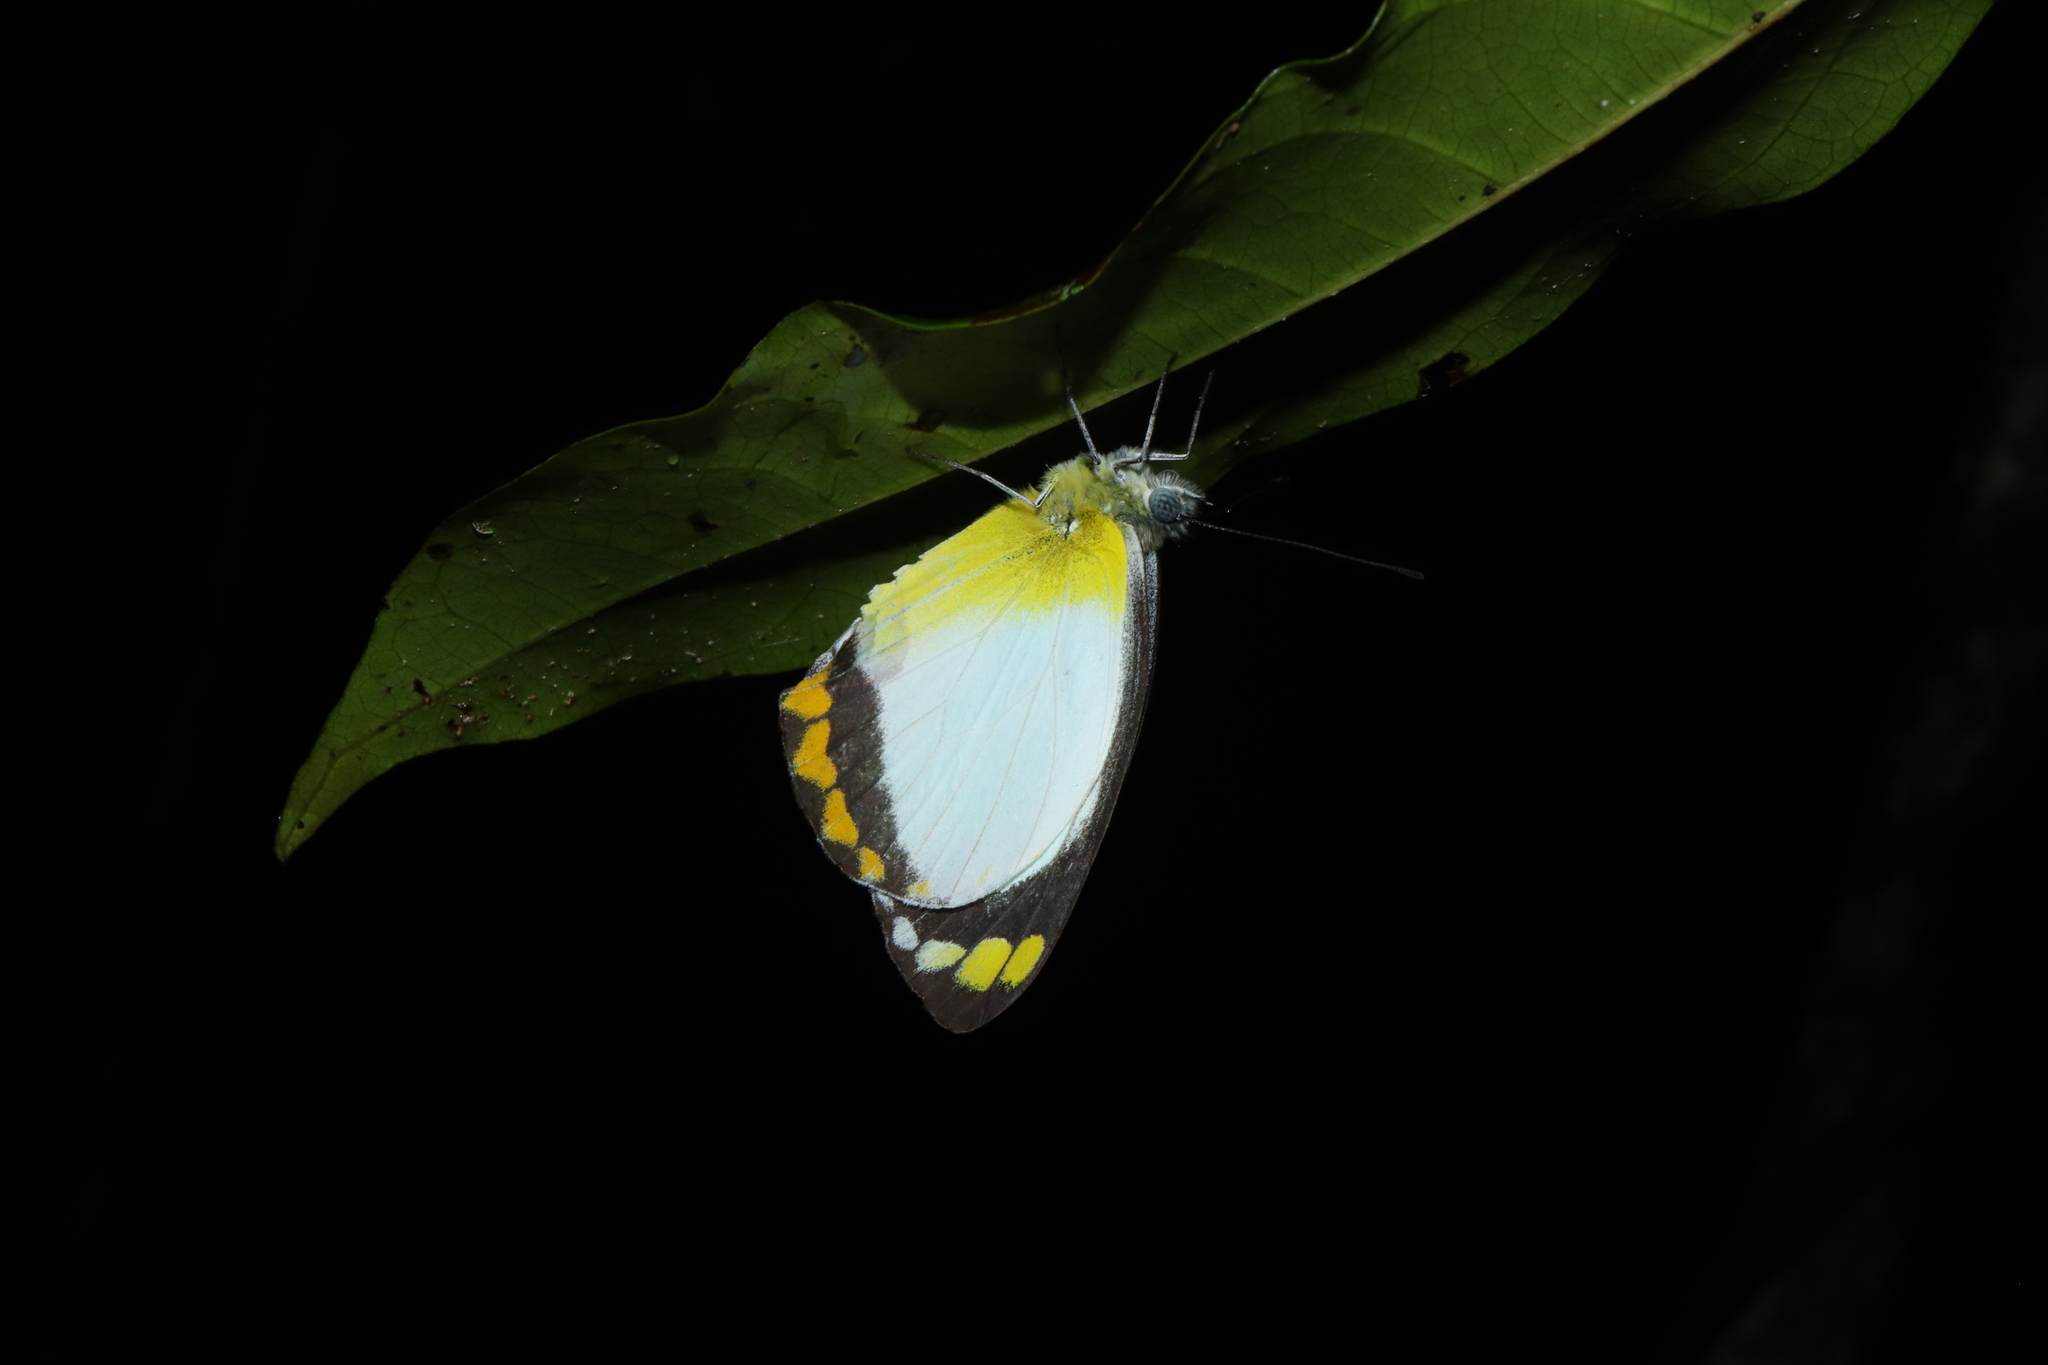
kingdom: Animalia
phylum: Arthropoda
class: Insecta
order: Lepidoptera
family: Pieridae
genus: Delias
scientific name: Delias ennia
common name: Yellow-banded jezebel
